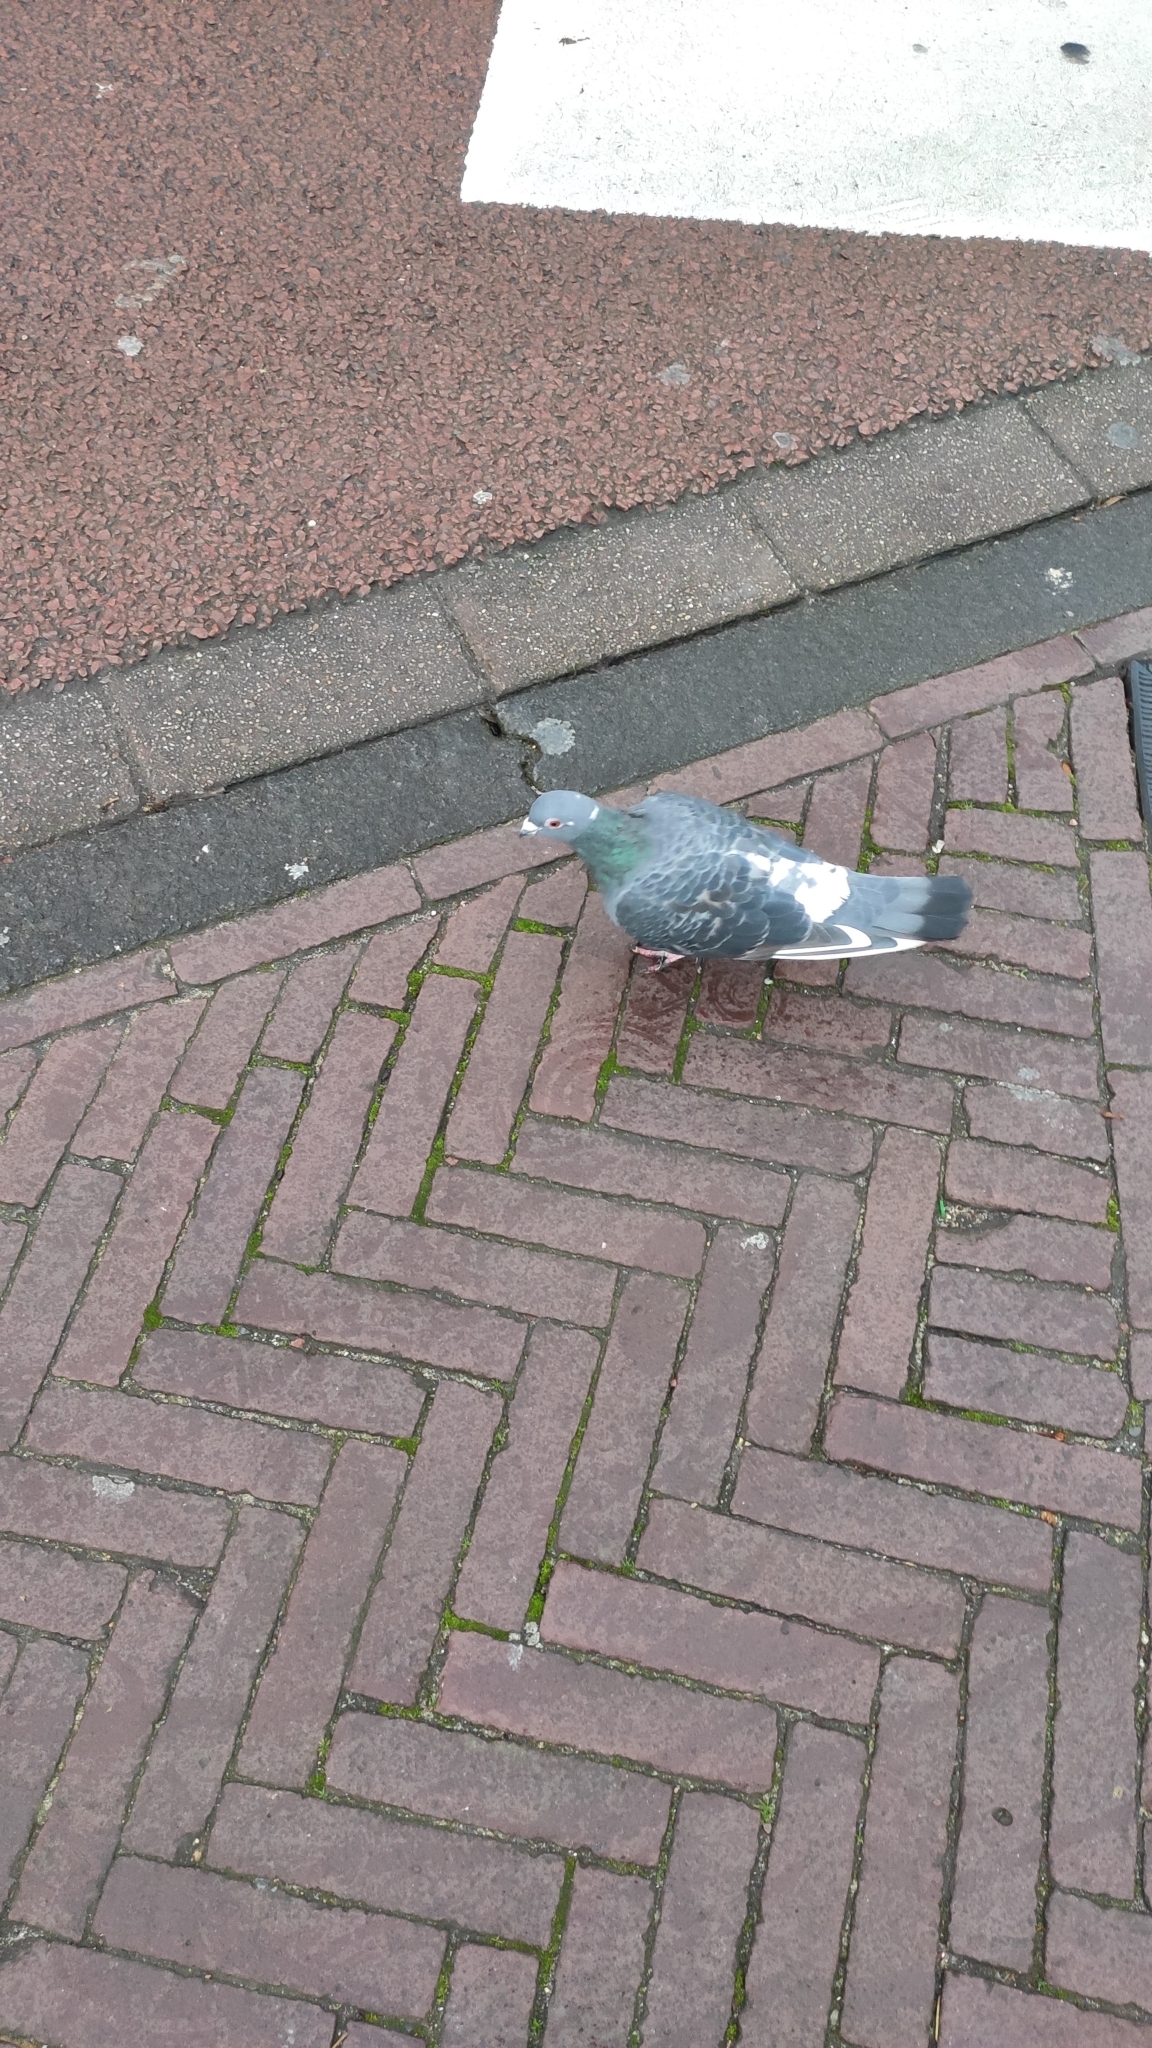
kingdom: Animalia
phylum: Chordata
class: Aves
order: Columbiformes
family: Columbidae
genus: Columba
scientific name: Columba livia
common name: Rock pigeon
